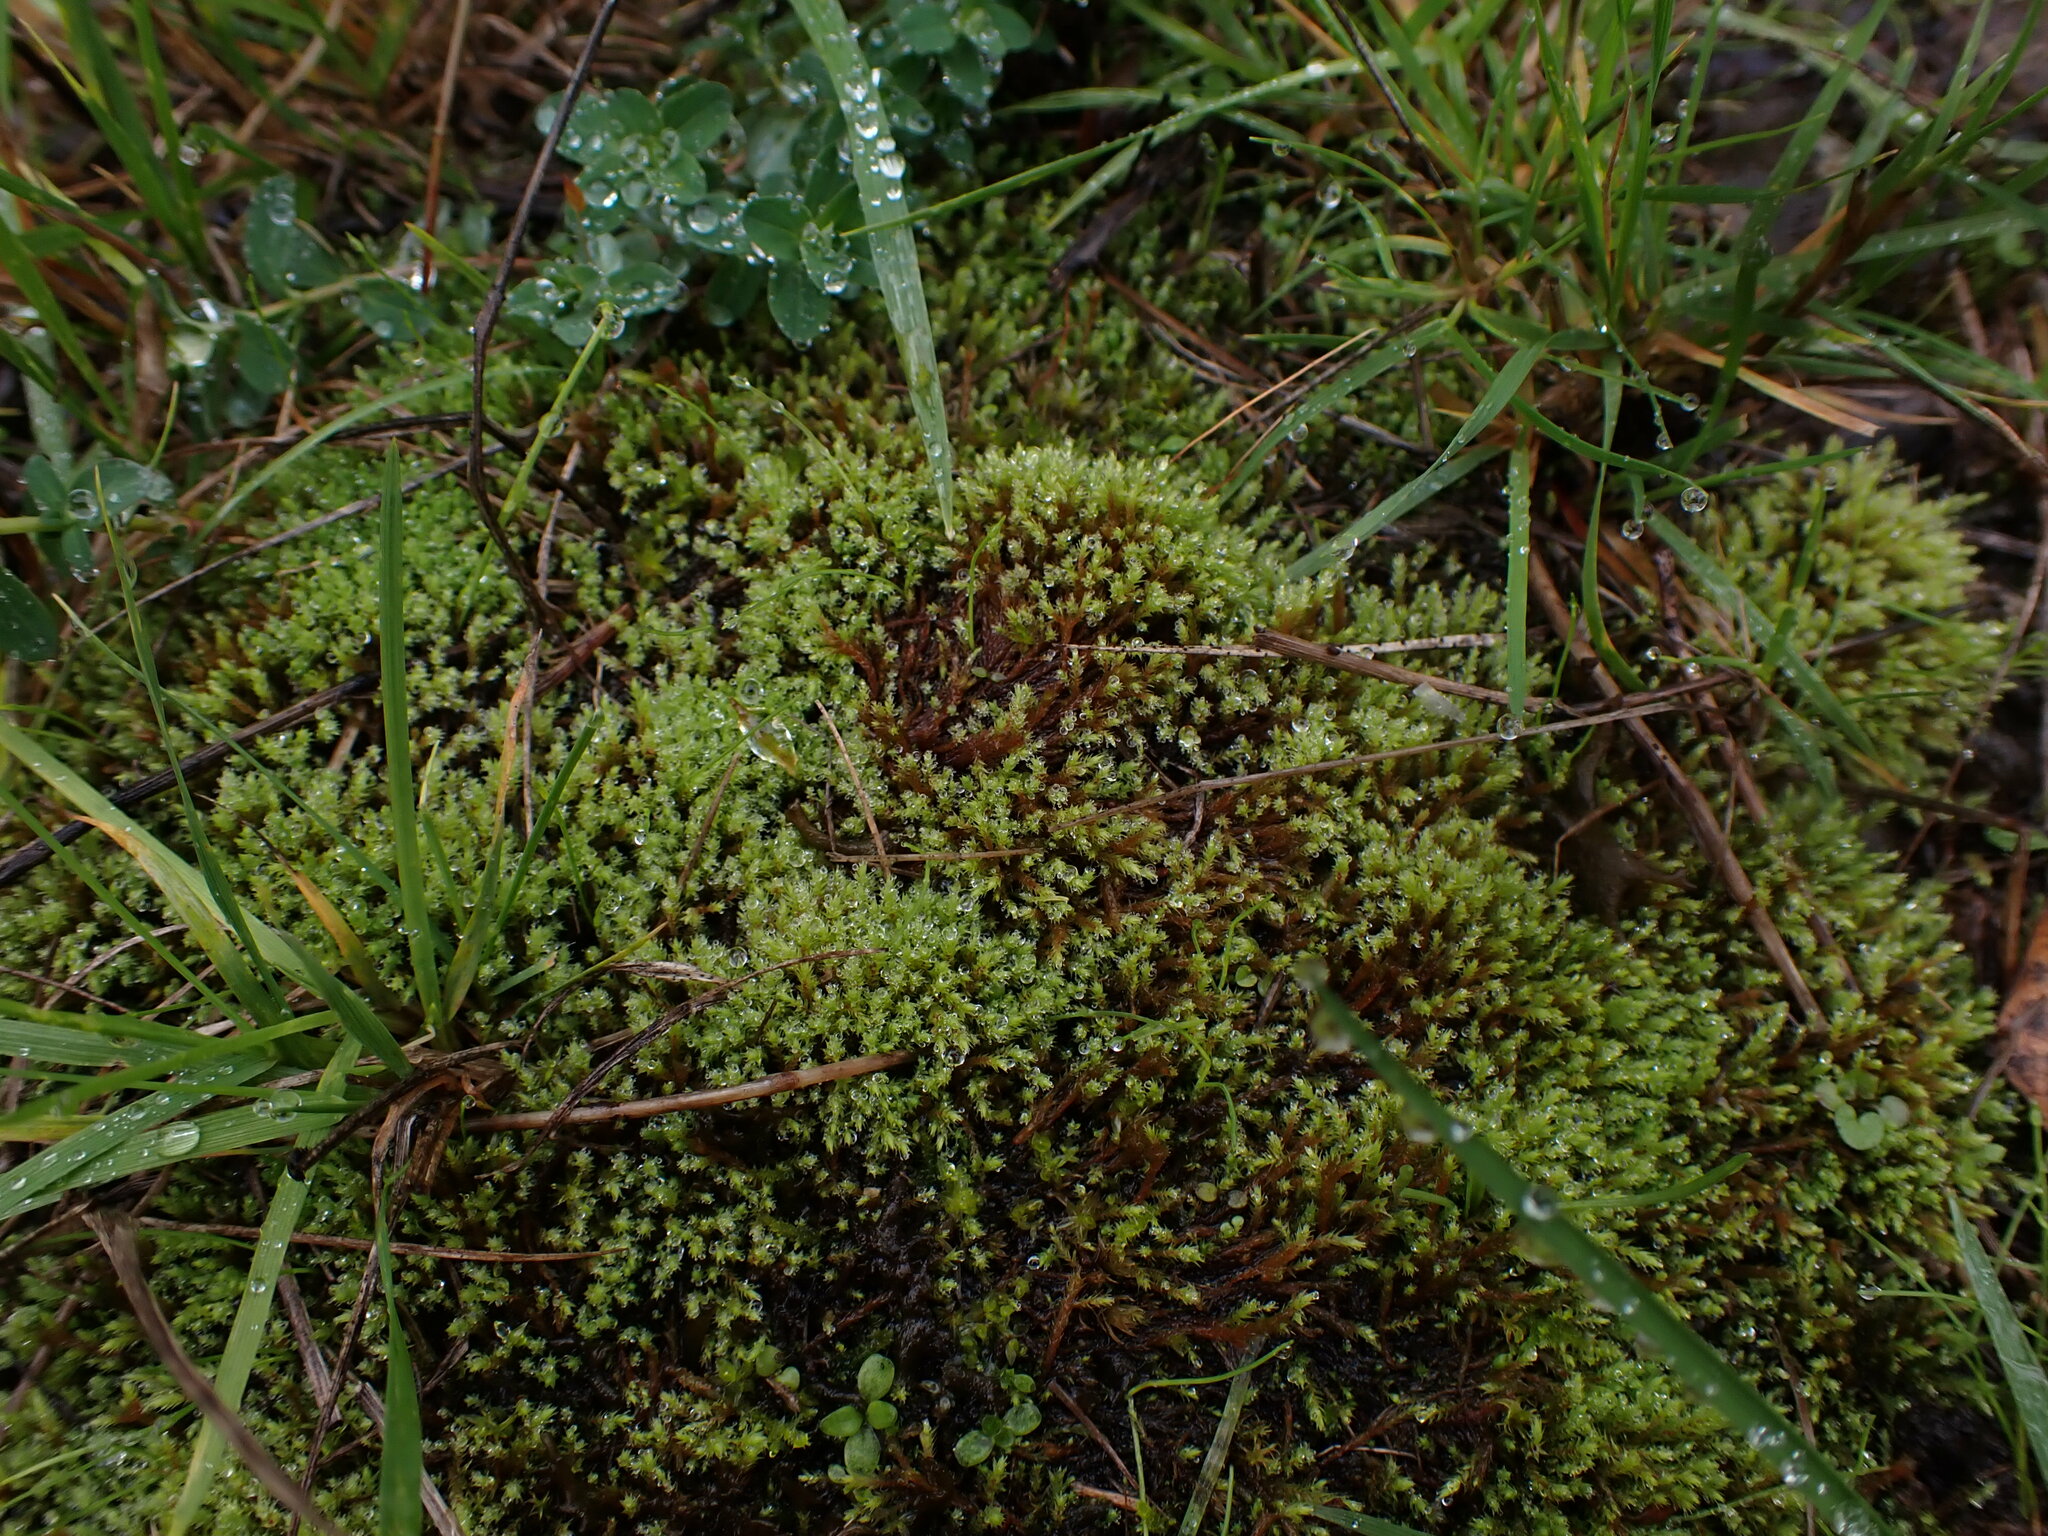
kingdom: Plantae
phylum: Bryophyta
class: Bryopsida
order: Bartramiales
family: Bartramiaceae
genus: Philonotis
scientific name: Philonotis fontana
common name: Fountain apple-moss
